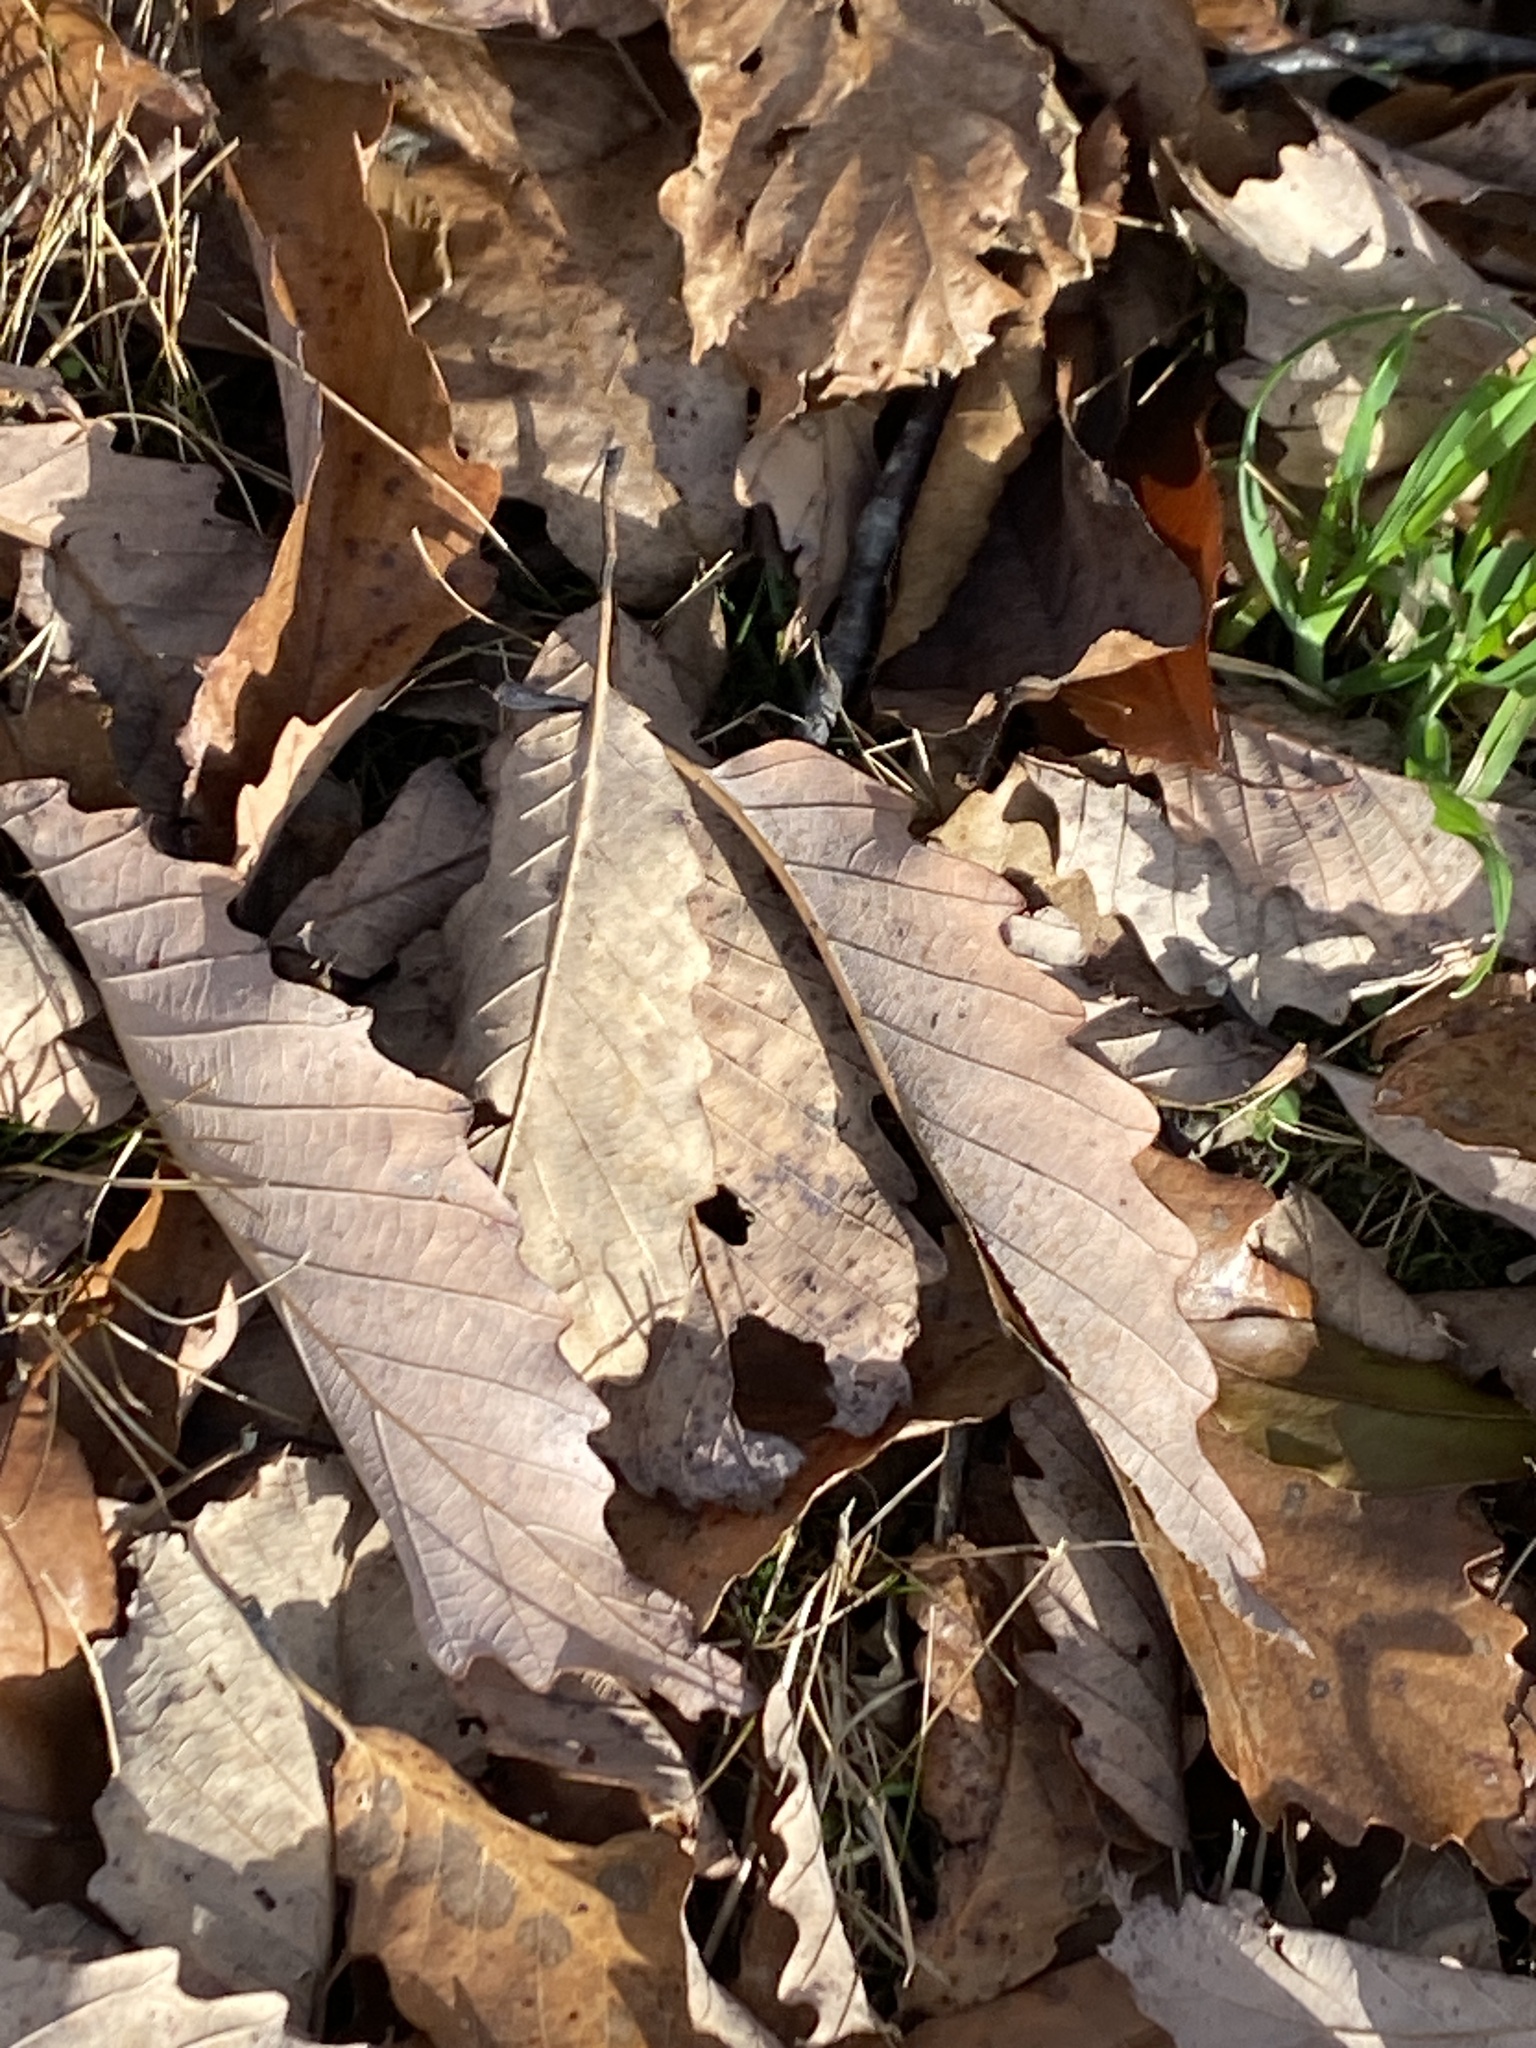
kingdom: Plantae
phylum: Tracheophyta
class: Magnoliopsida
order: Fagales
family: Fagaceae
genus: Quercus
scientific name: Quercus montana
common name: Chestnut oak
